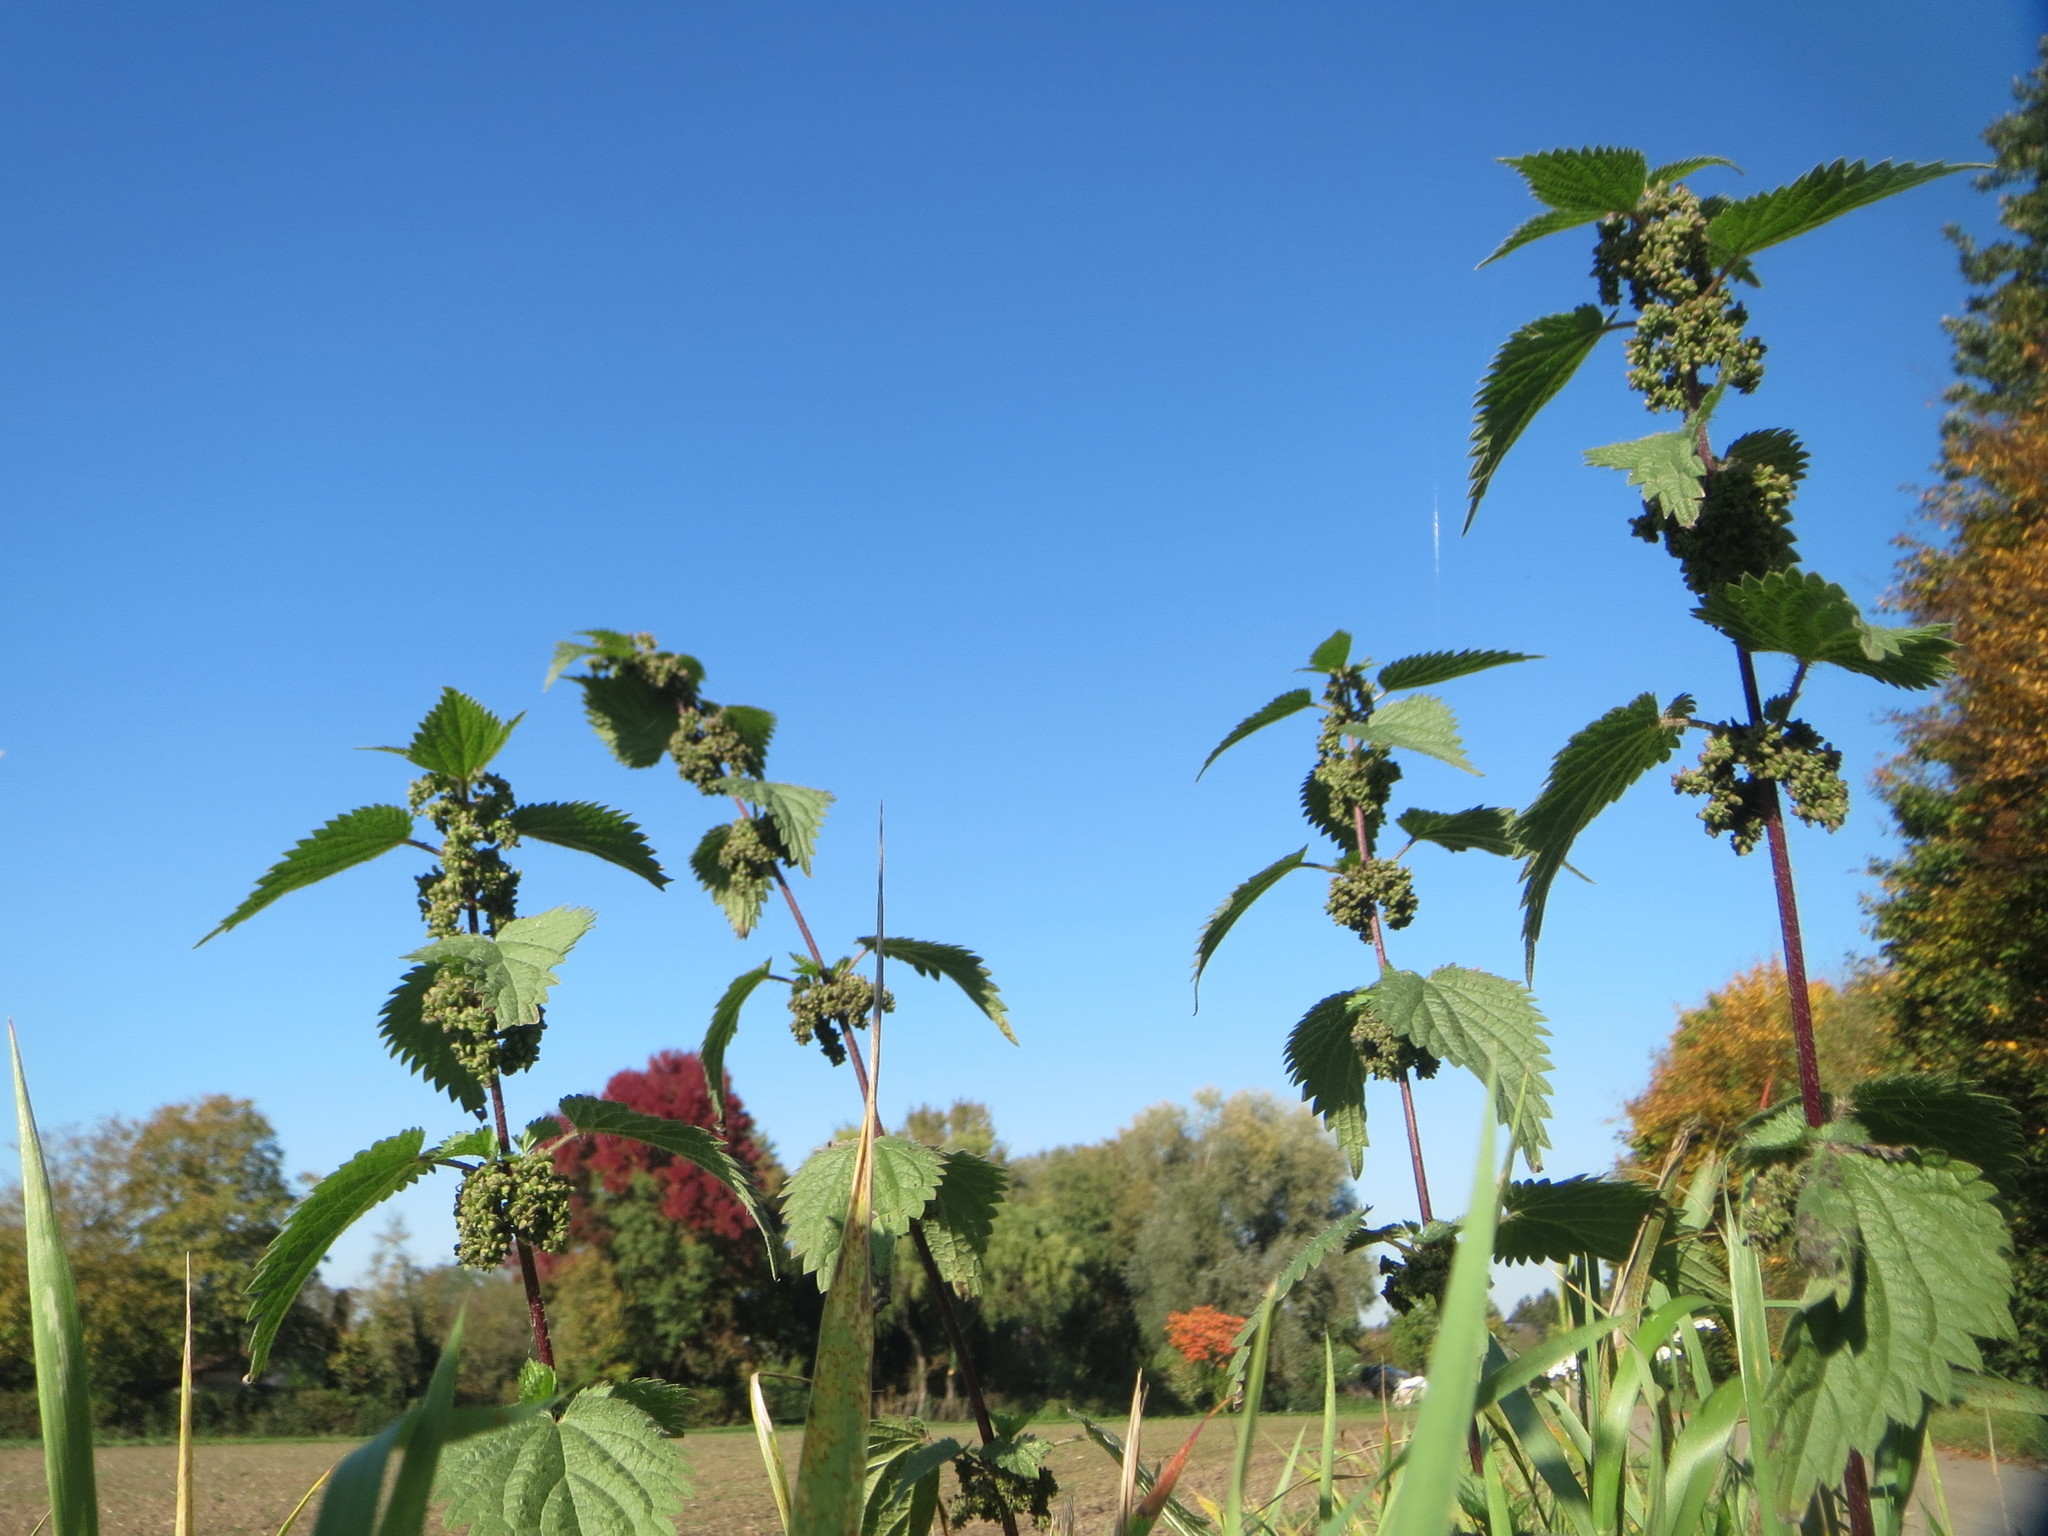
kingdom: Plantae
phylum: Tracheophyta
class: Magnoliopsida
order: Rosales
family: Urticaceae
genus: Urtica
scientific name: Urtica dioica
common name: Common nettle
